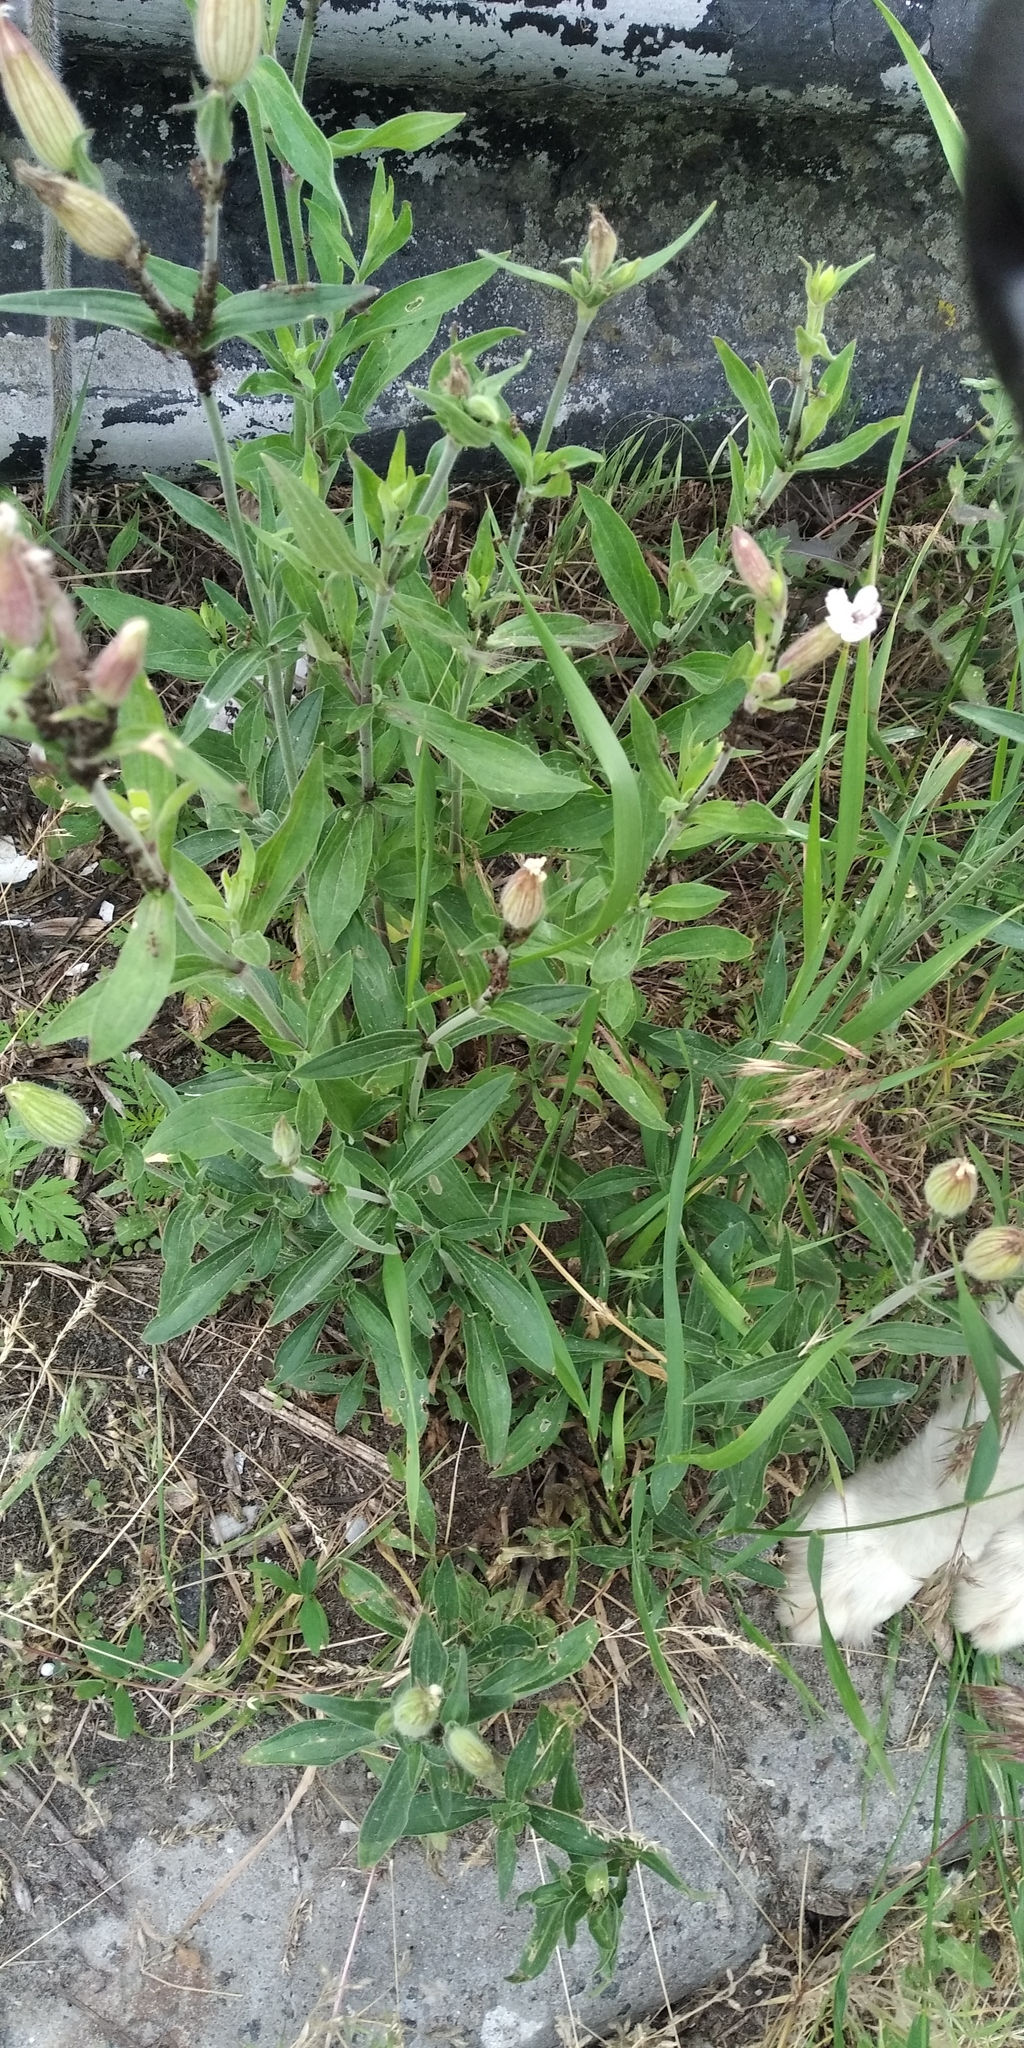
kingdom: Plantae
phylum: Tracheophyta
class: Magnoliopsida
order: Caryophyllales
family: Caryophyllaceae
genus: Silene
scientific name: Silene latifolia
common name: White campion
